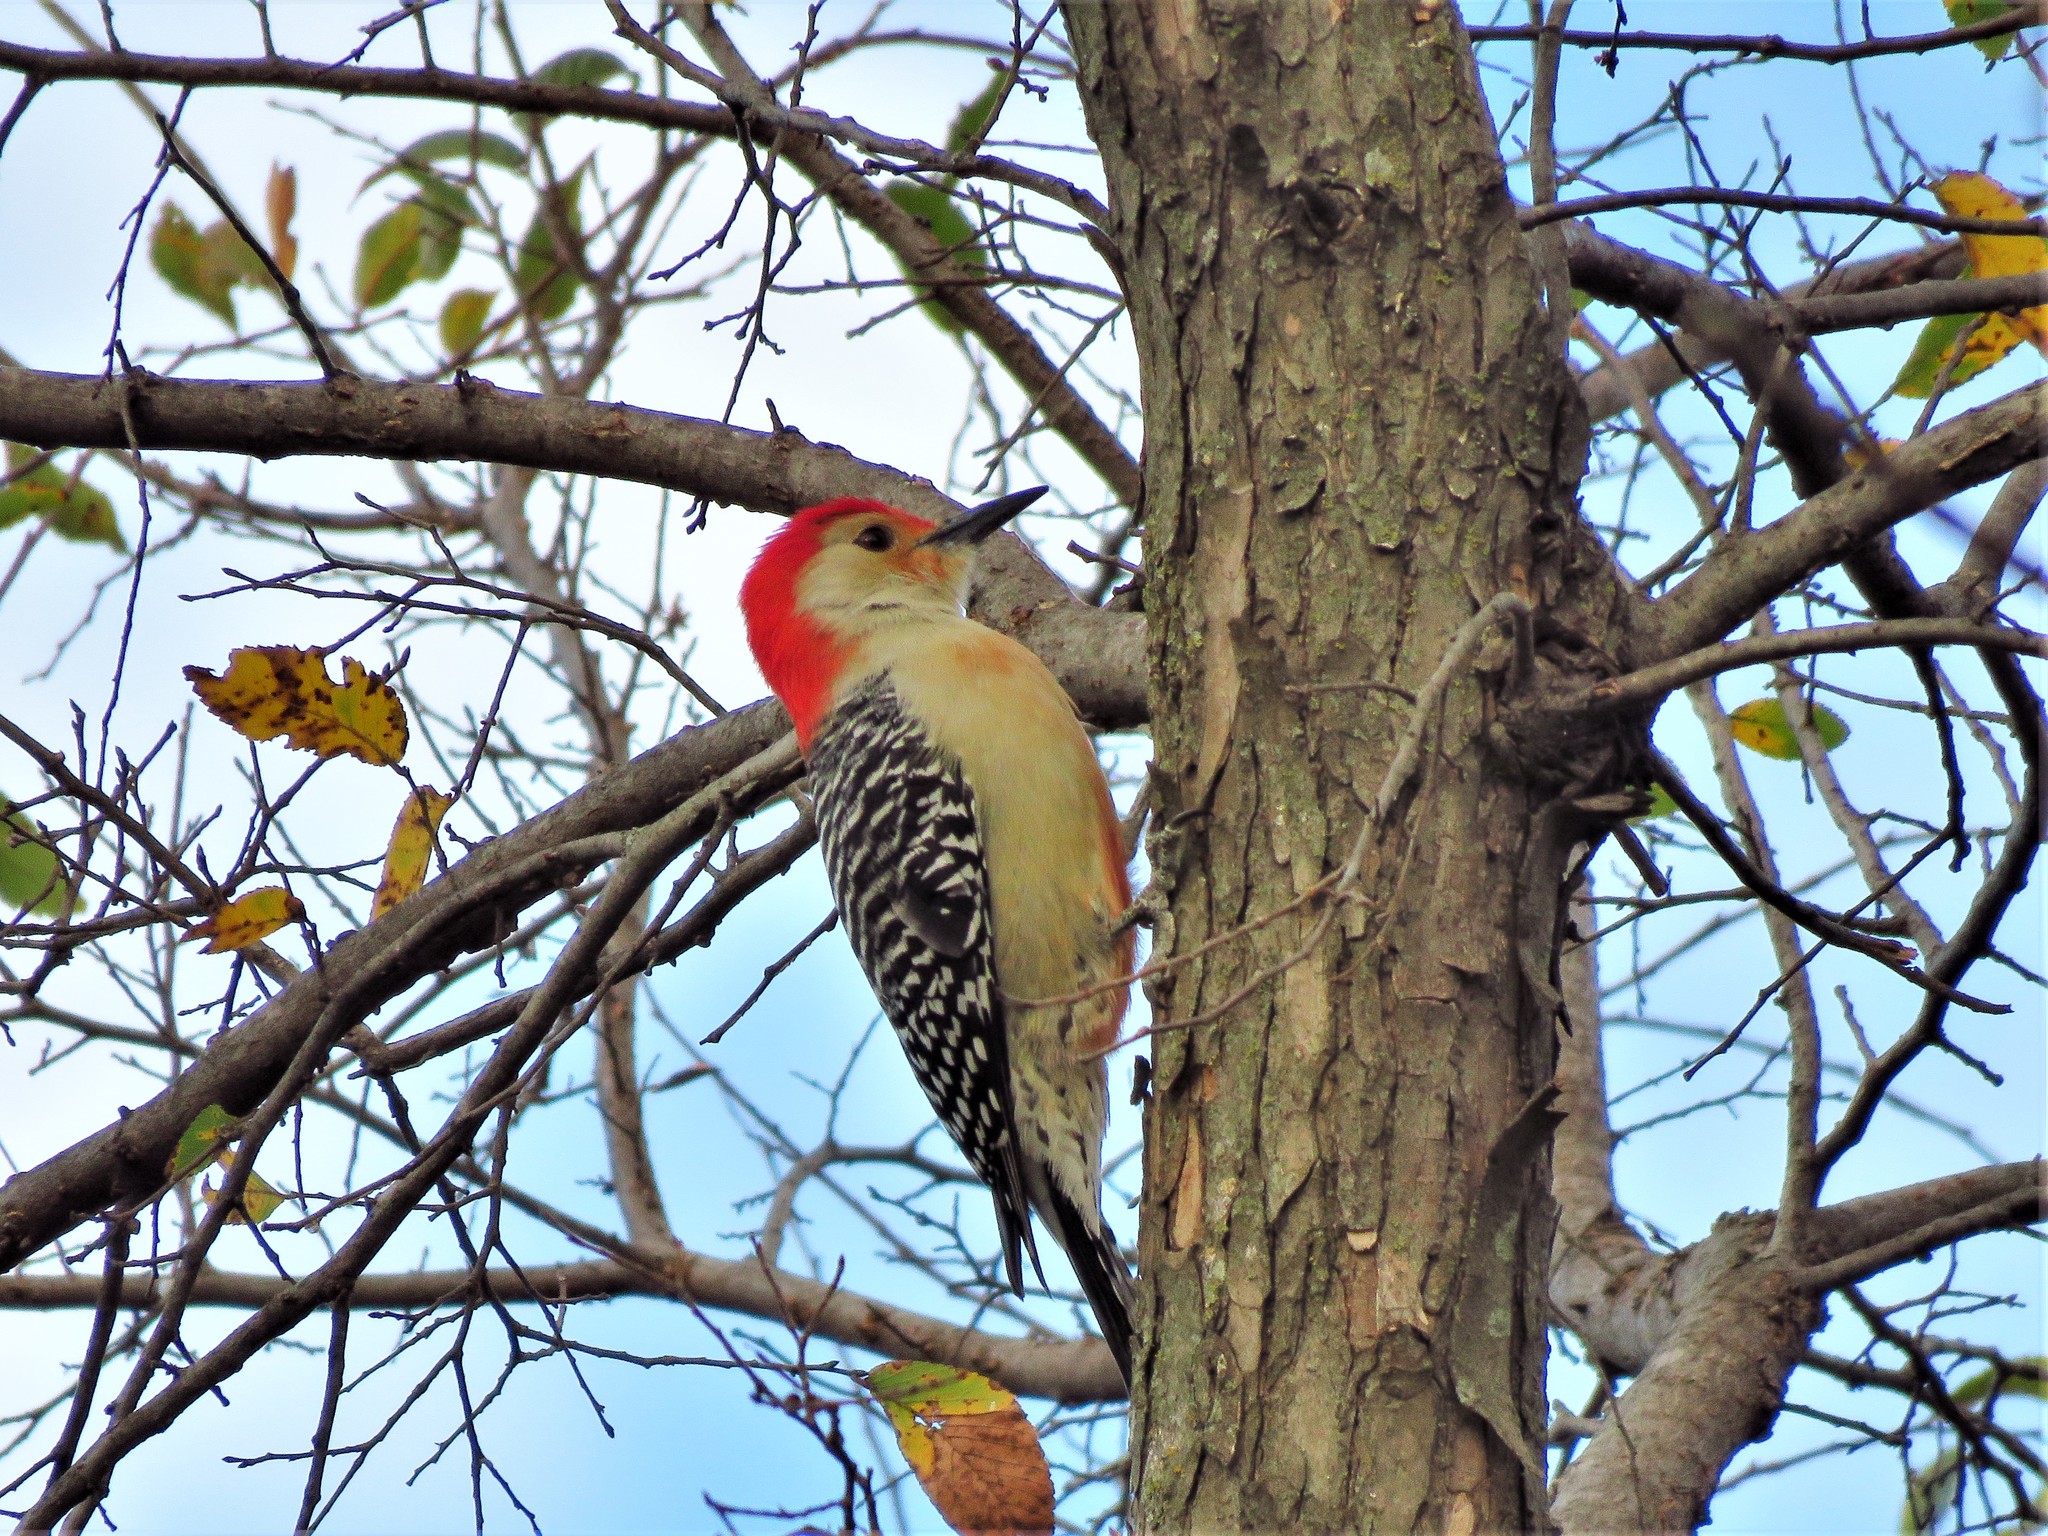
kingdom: Animalia
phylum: Chordata
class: Aves
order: Piciformes
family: Picidae
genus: Melanerpes
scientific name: Melanerpes carolinus
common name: Red-bellied woodpecker
